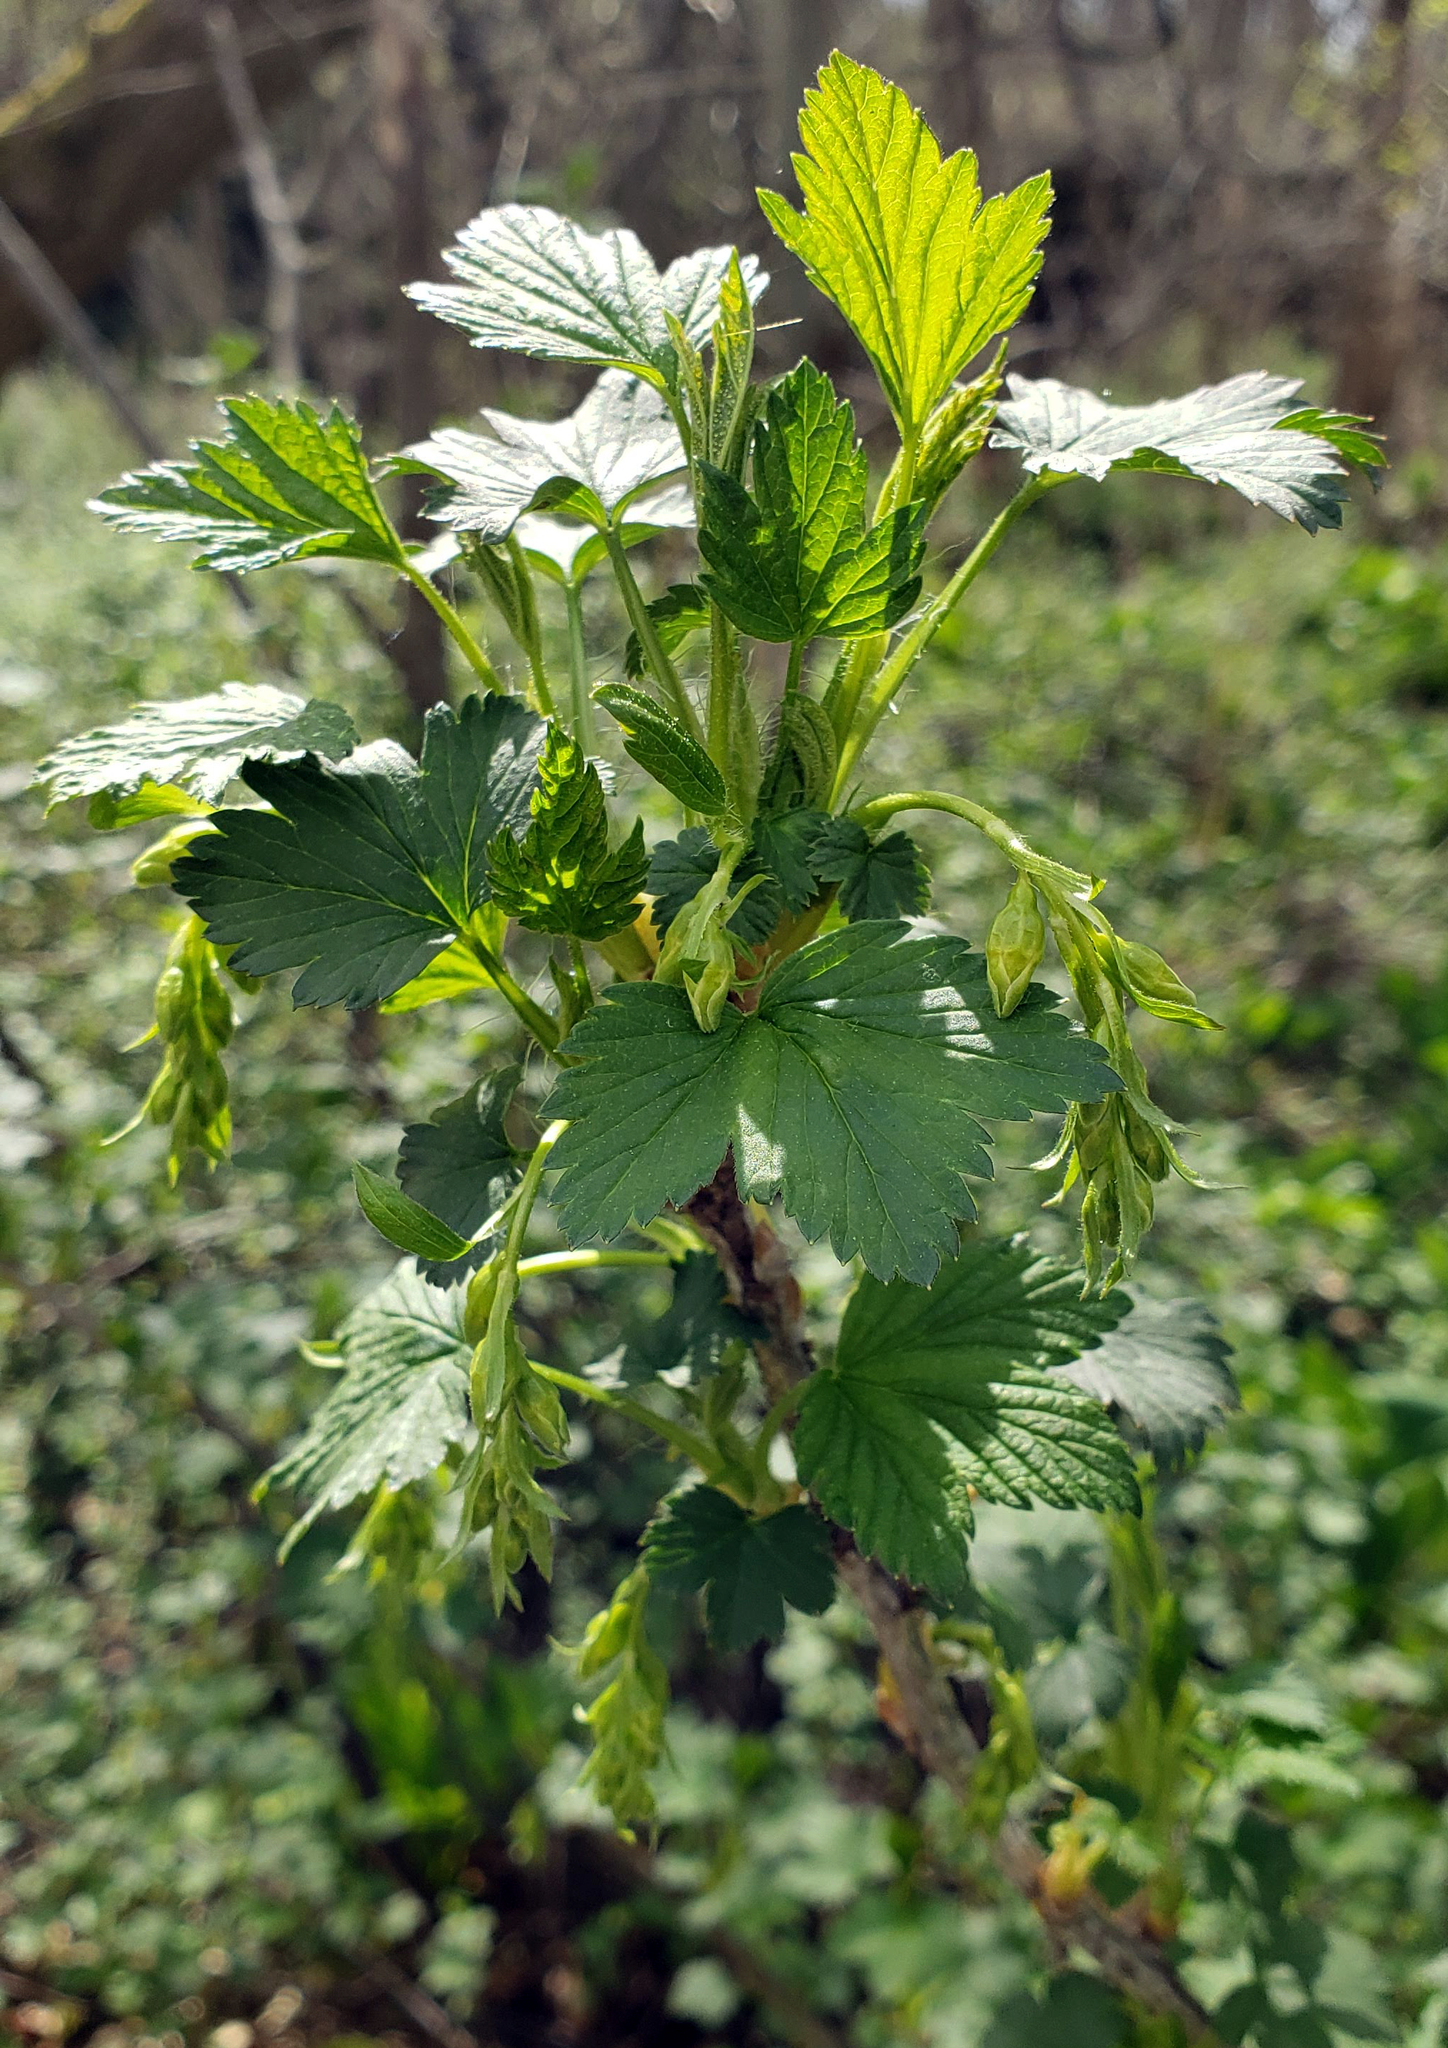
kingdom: Plantae
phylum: Tracheophyta
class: Magnoliopsida
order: Saxifragales
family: Grossulariaceae
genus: Ribes
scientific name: Ribes americanum
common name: American black currant
